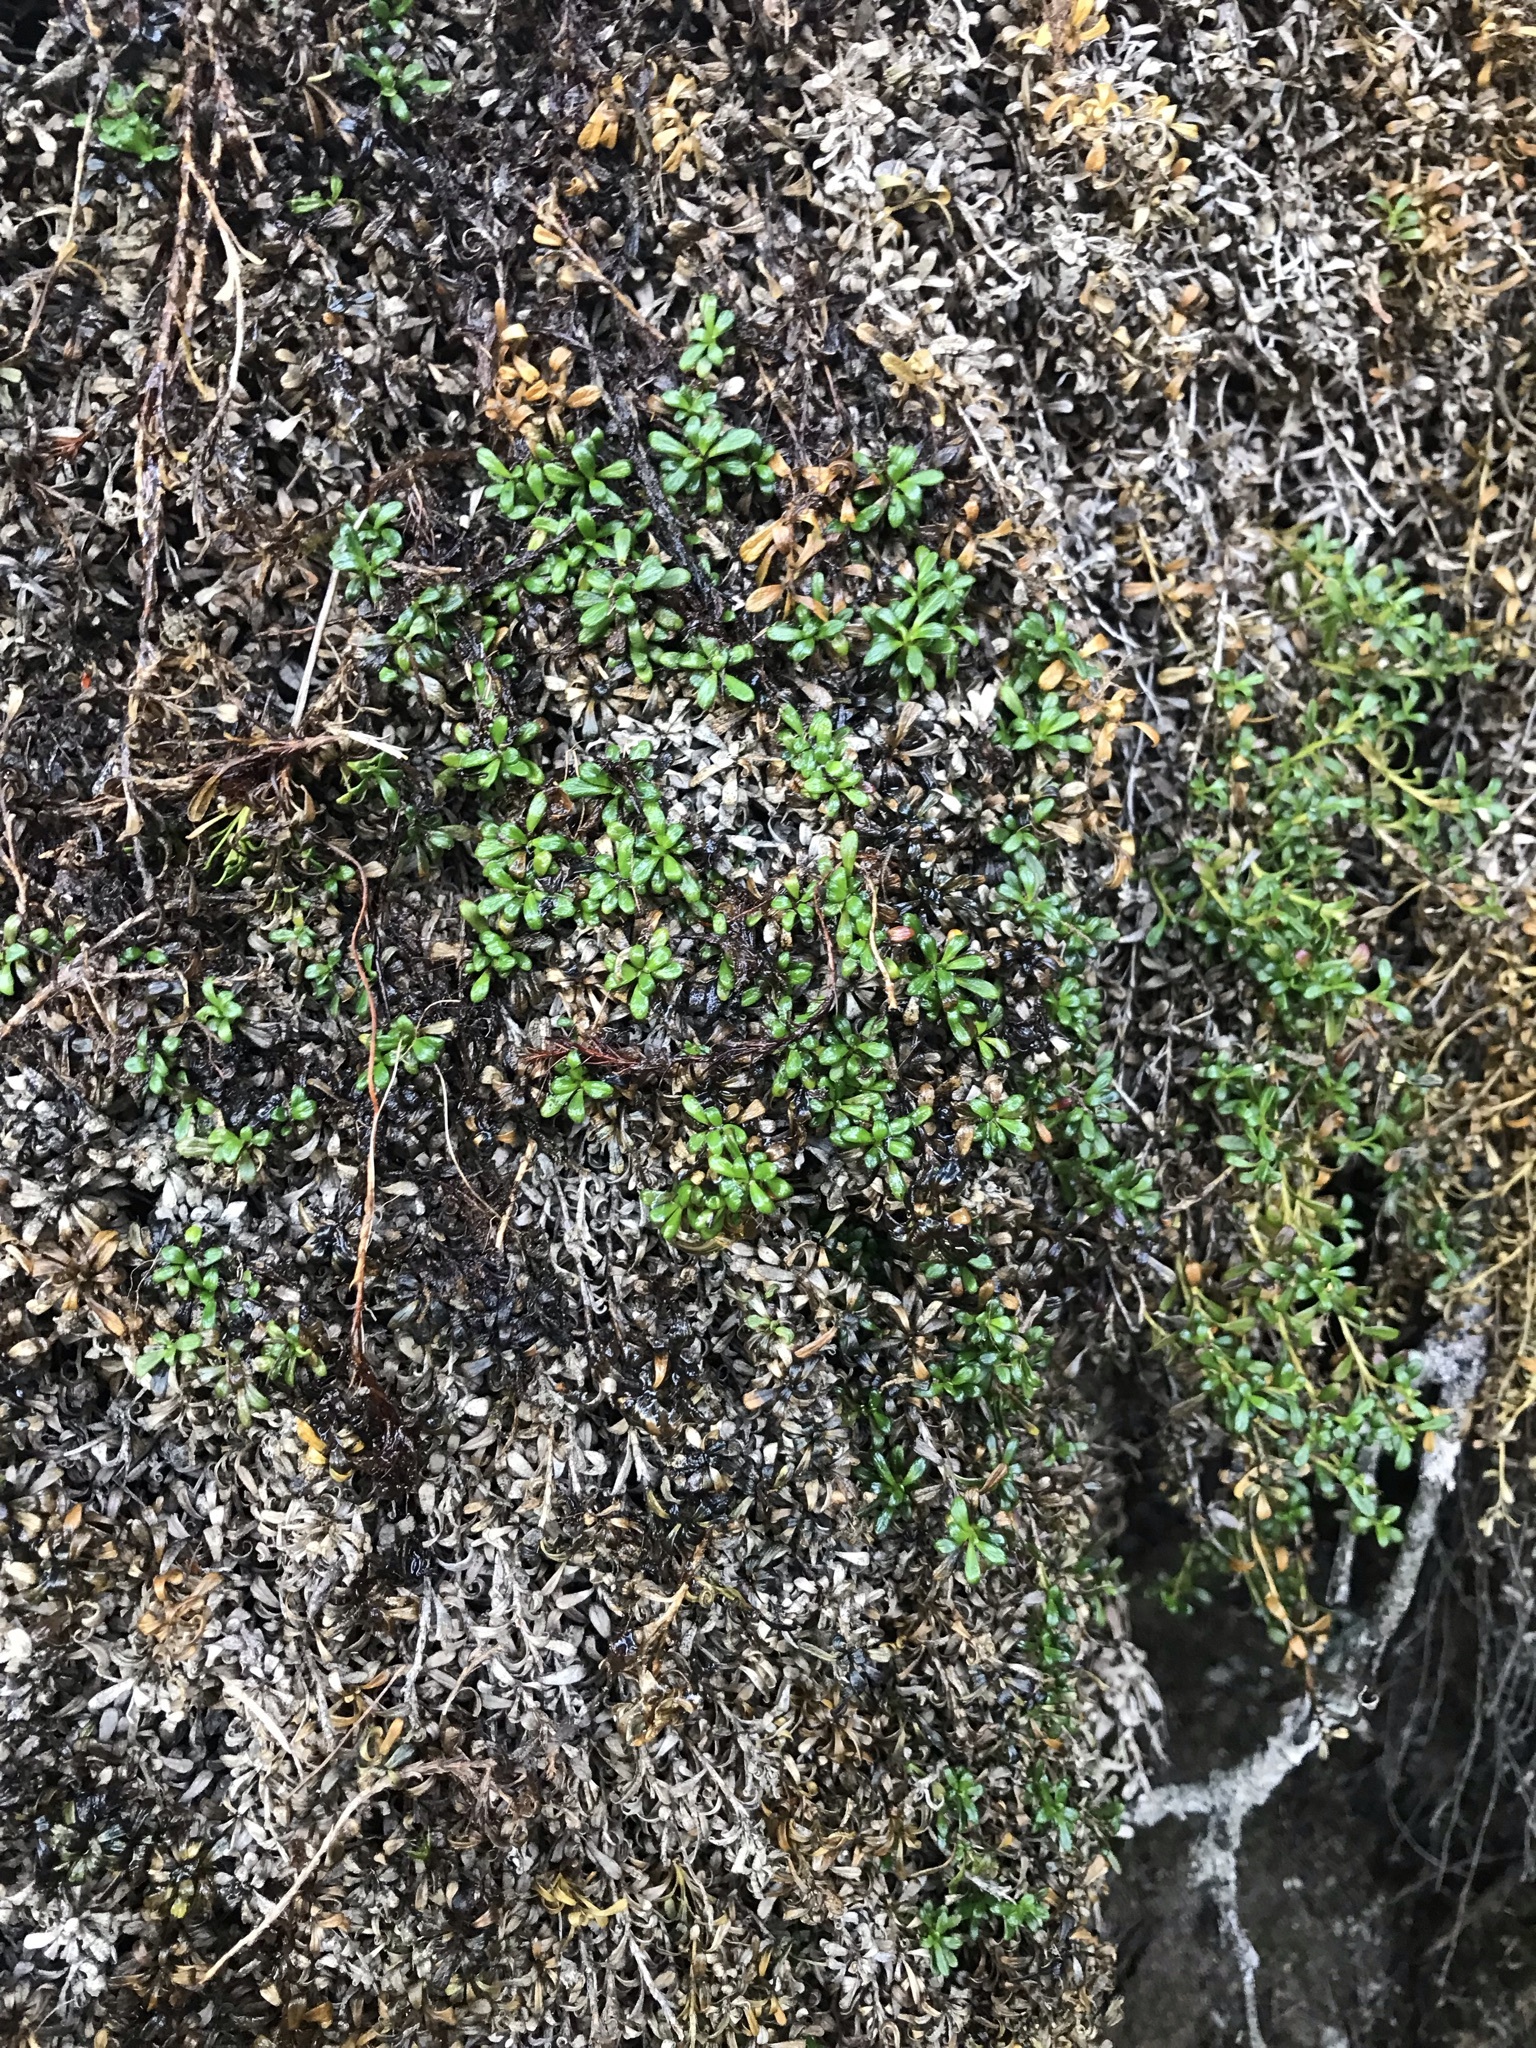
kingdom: Plantae
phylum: Tracheophyta
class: Magnoliopsida
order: Ericales
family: Diapensiaceae
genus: Diapensia
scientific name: Diapensia obovata
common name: Alaska diapensia
